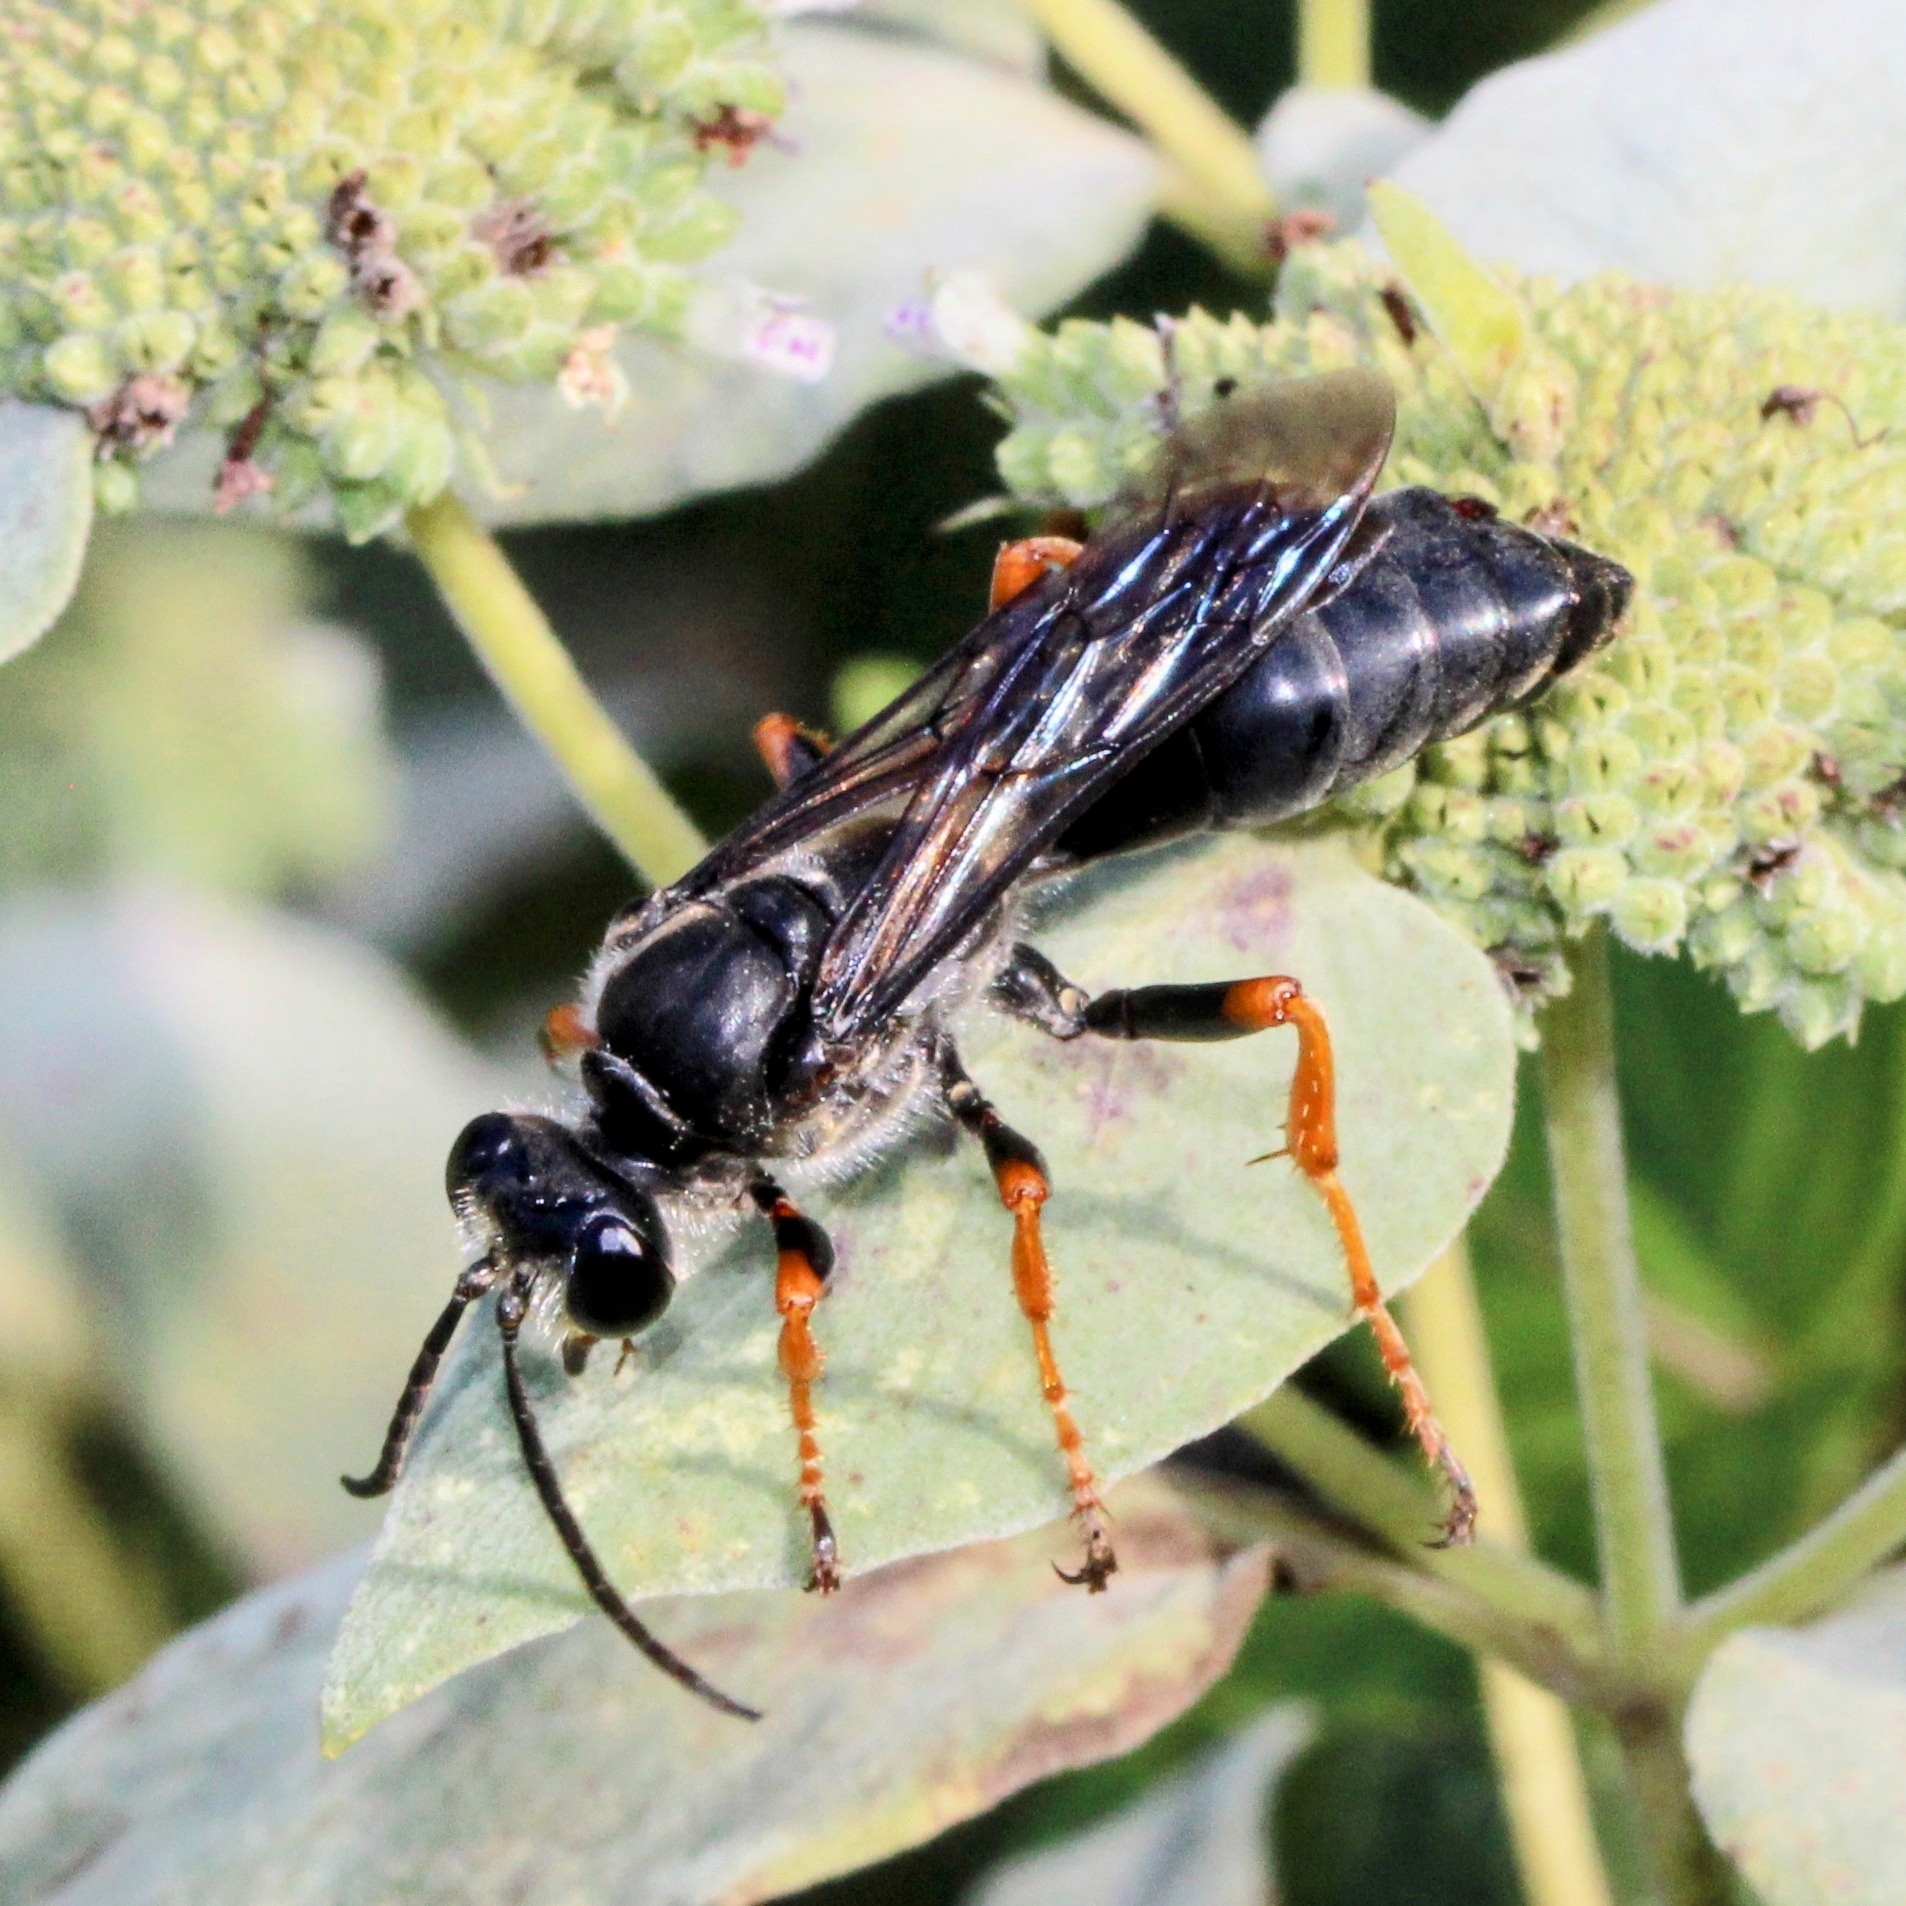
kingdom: Animalia
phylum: Arthropoda
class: Insecta
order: Hymenoptera
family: Sphecidae
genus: Sphex
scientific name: Sphex nudus
